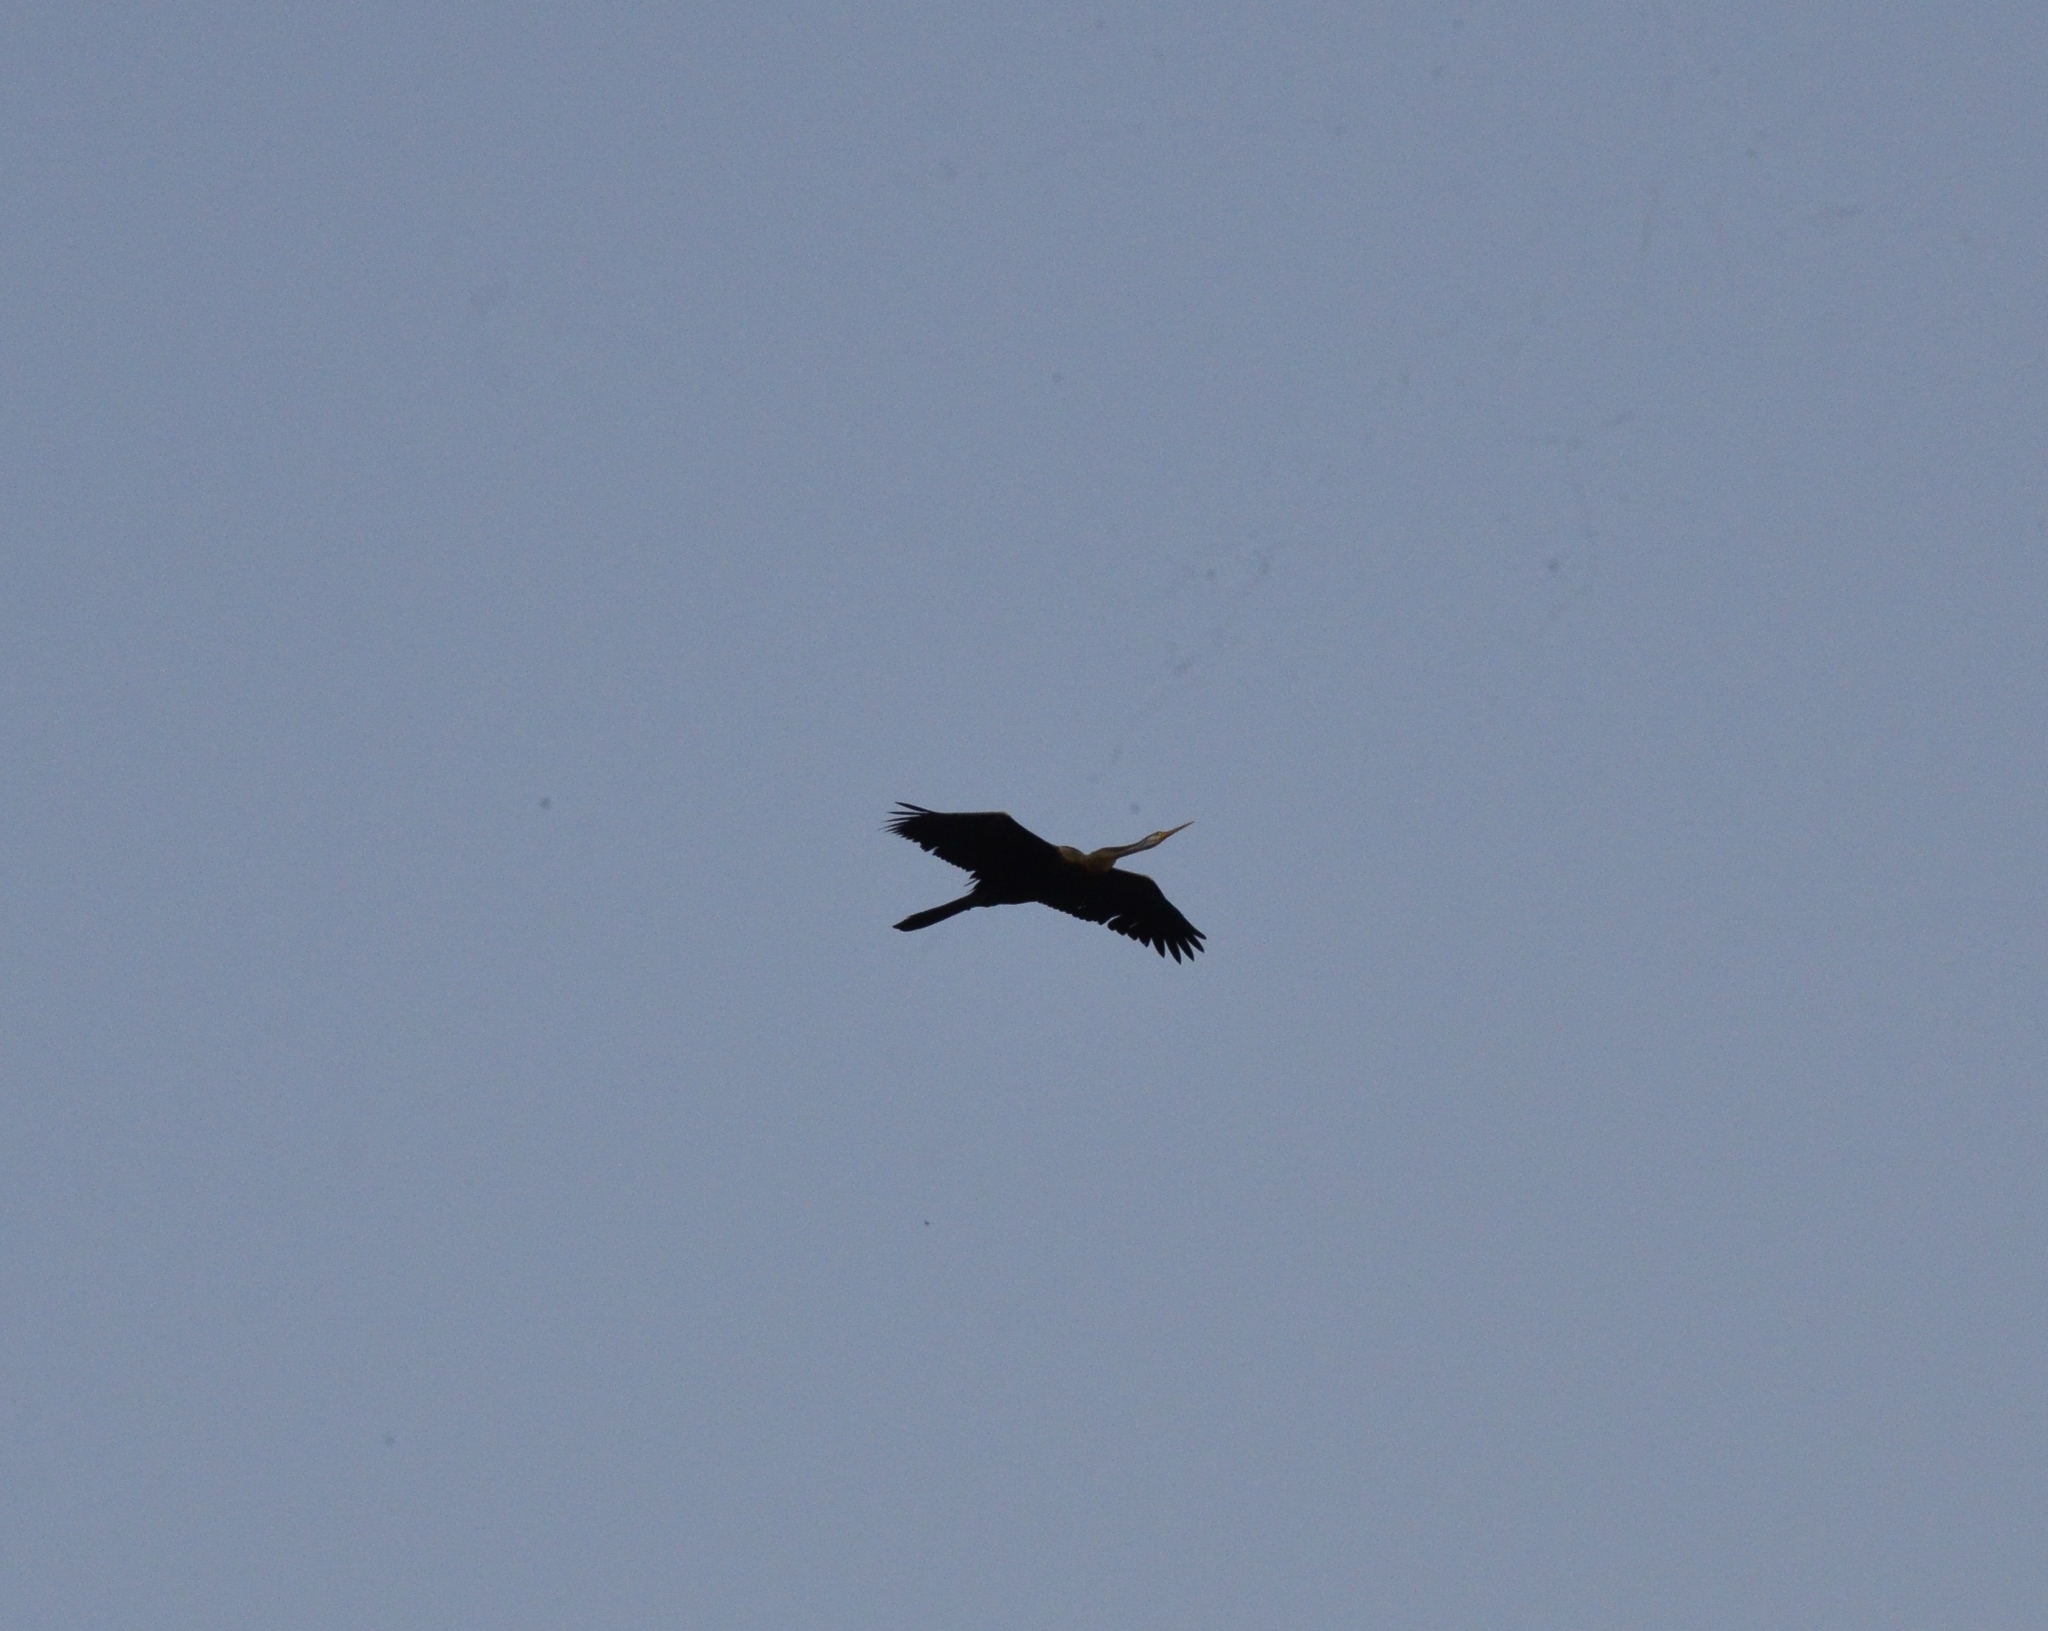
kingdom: Animalia
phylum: Chordata
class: Aves
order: Suliformes
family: Anhingidae
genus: Anhinga
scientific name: Anhinga melanogaster
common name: Oriental darter
